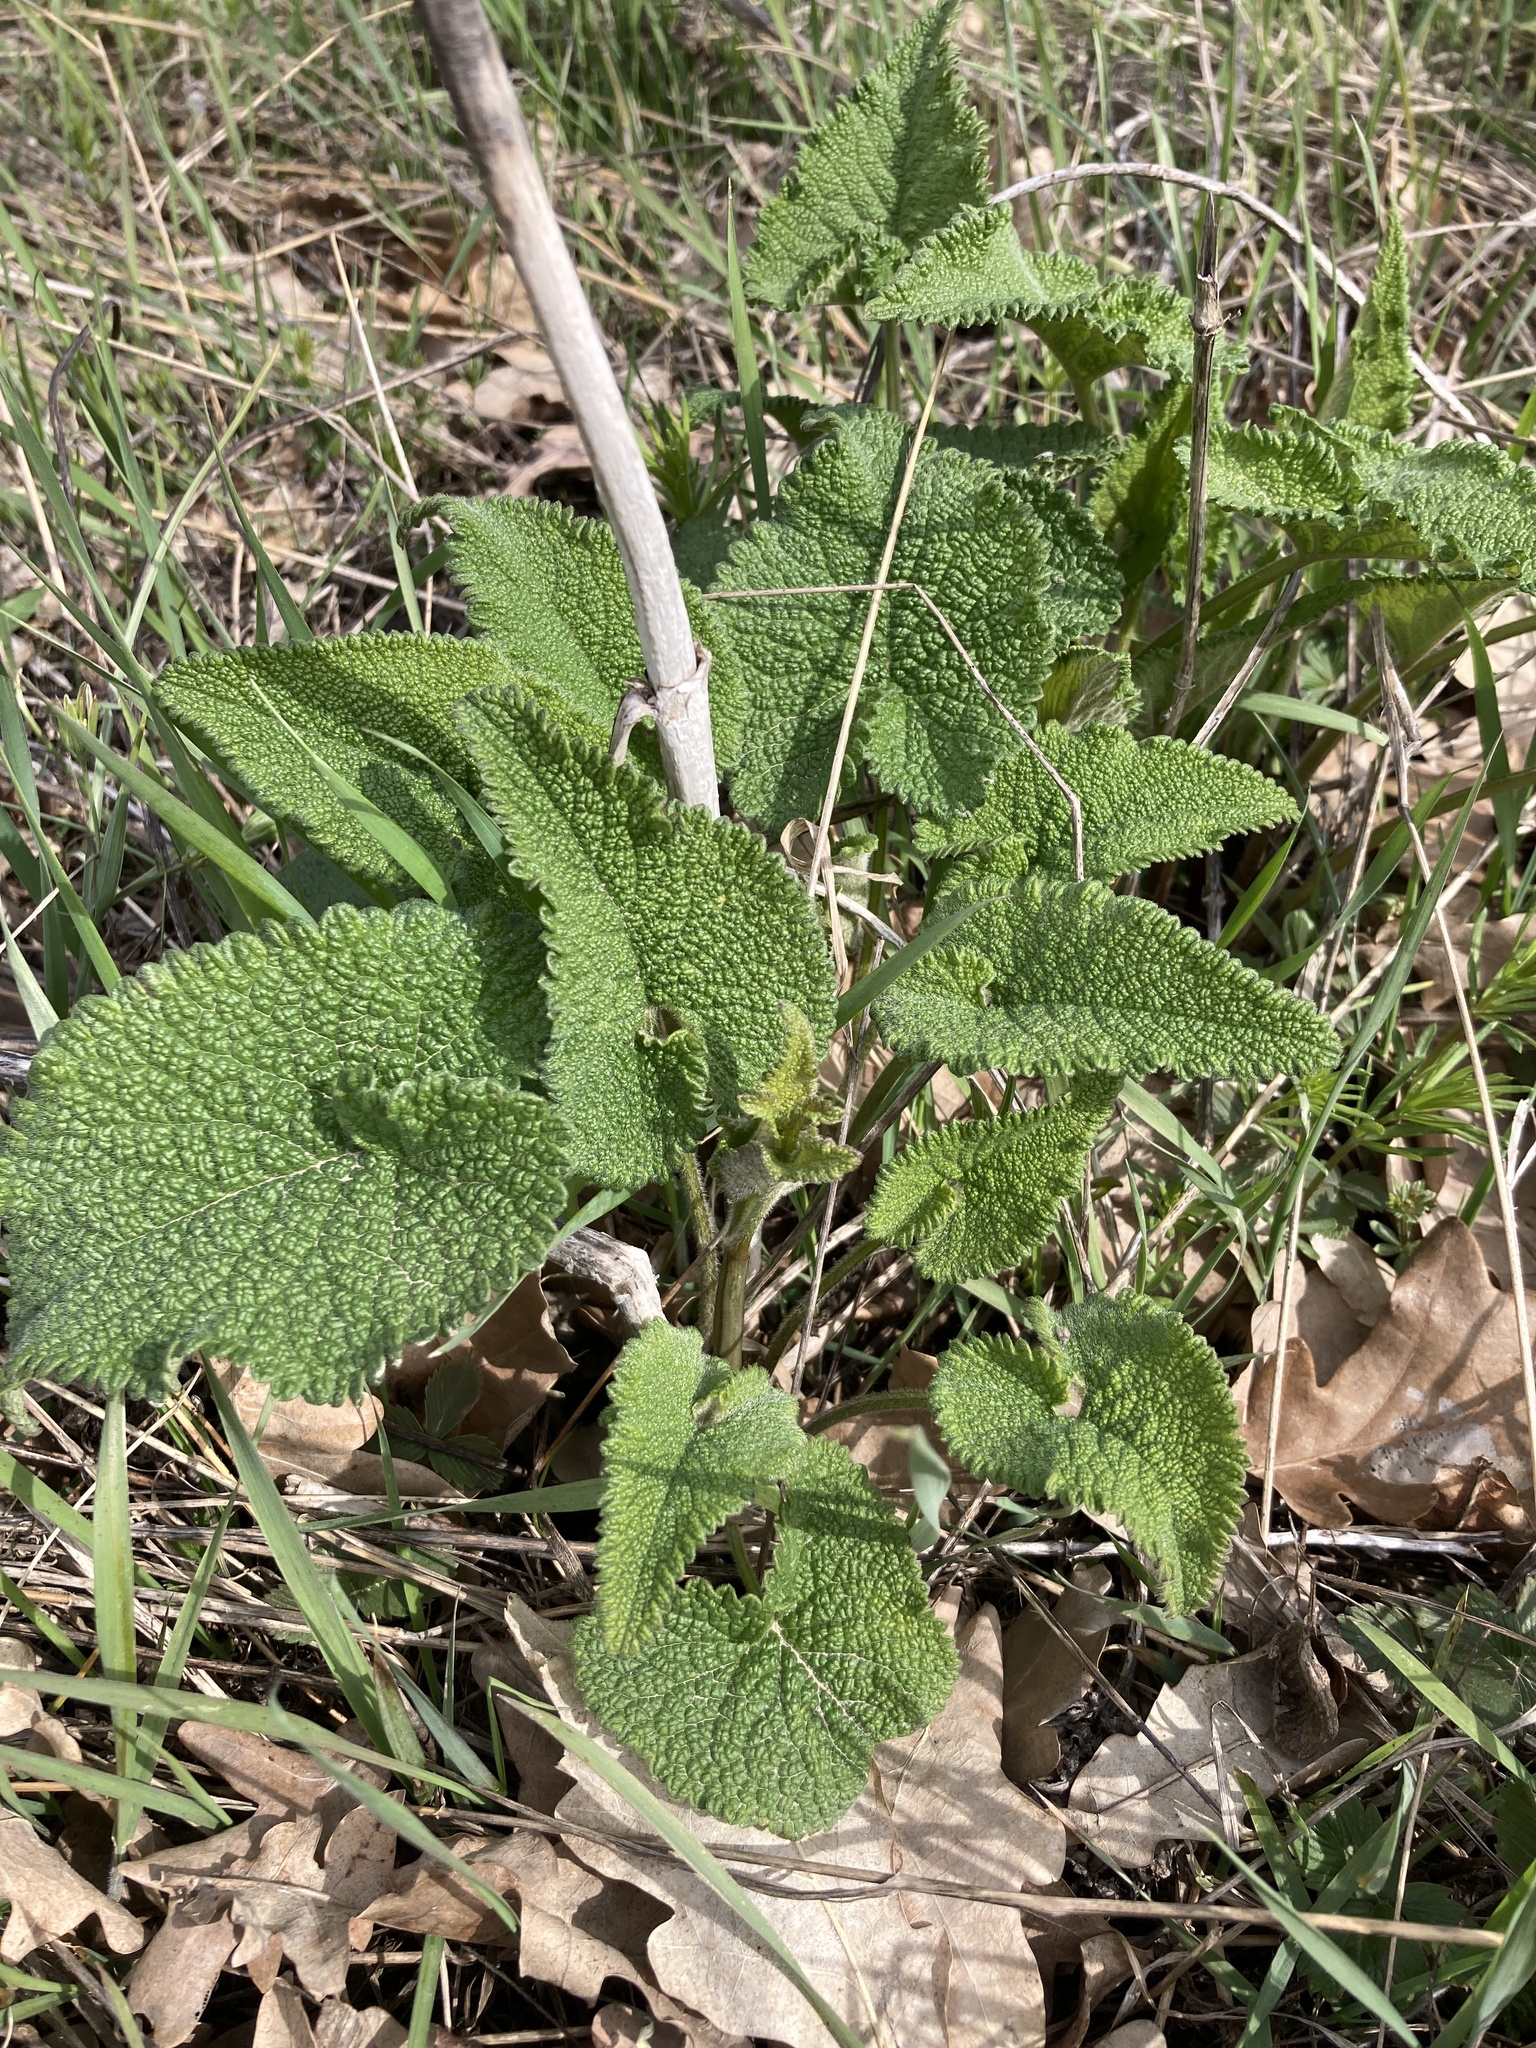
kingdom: Plantae
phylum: Tracheophyta
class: Magnoliopsida
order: Lamiales
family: Lamiaceae
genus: Phlomoides
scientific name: Phlomoides tuberosa
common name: Tuberous jerusalem sage
